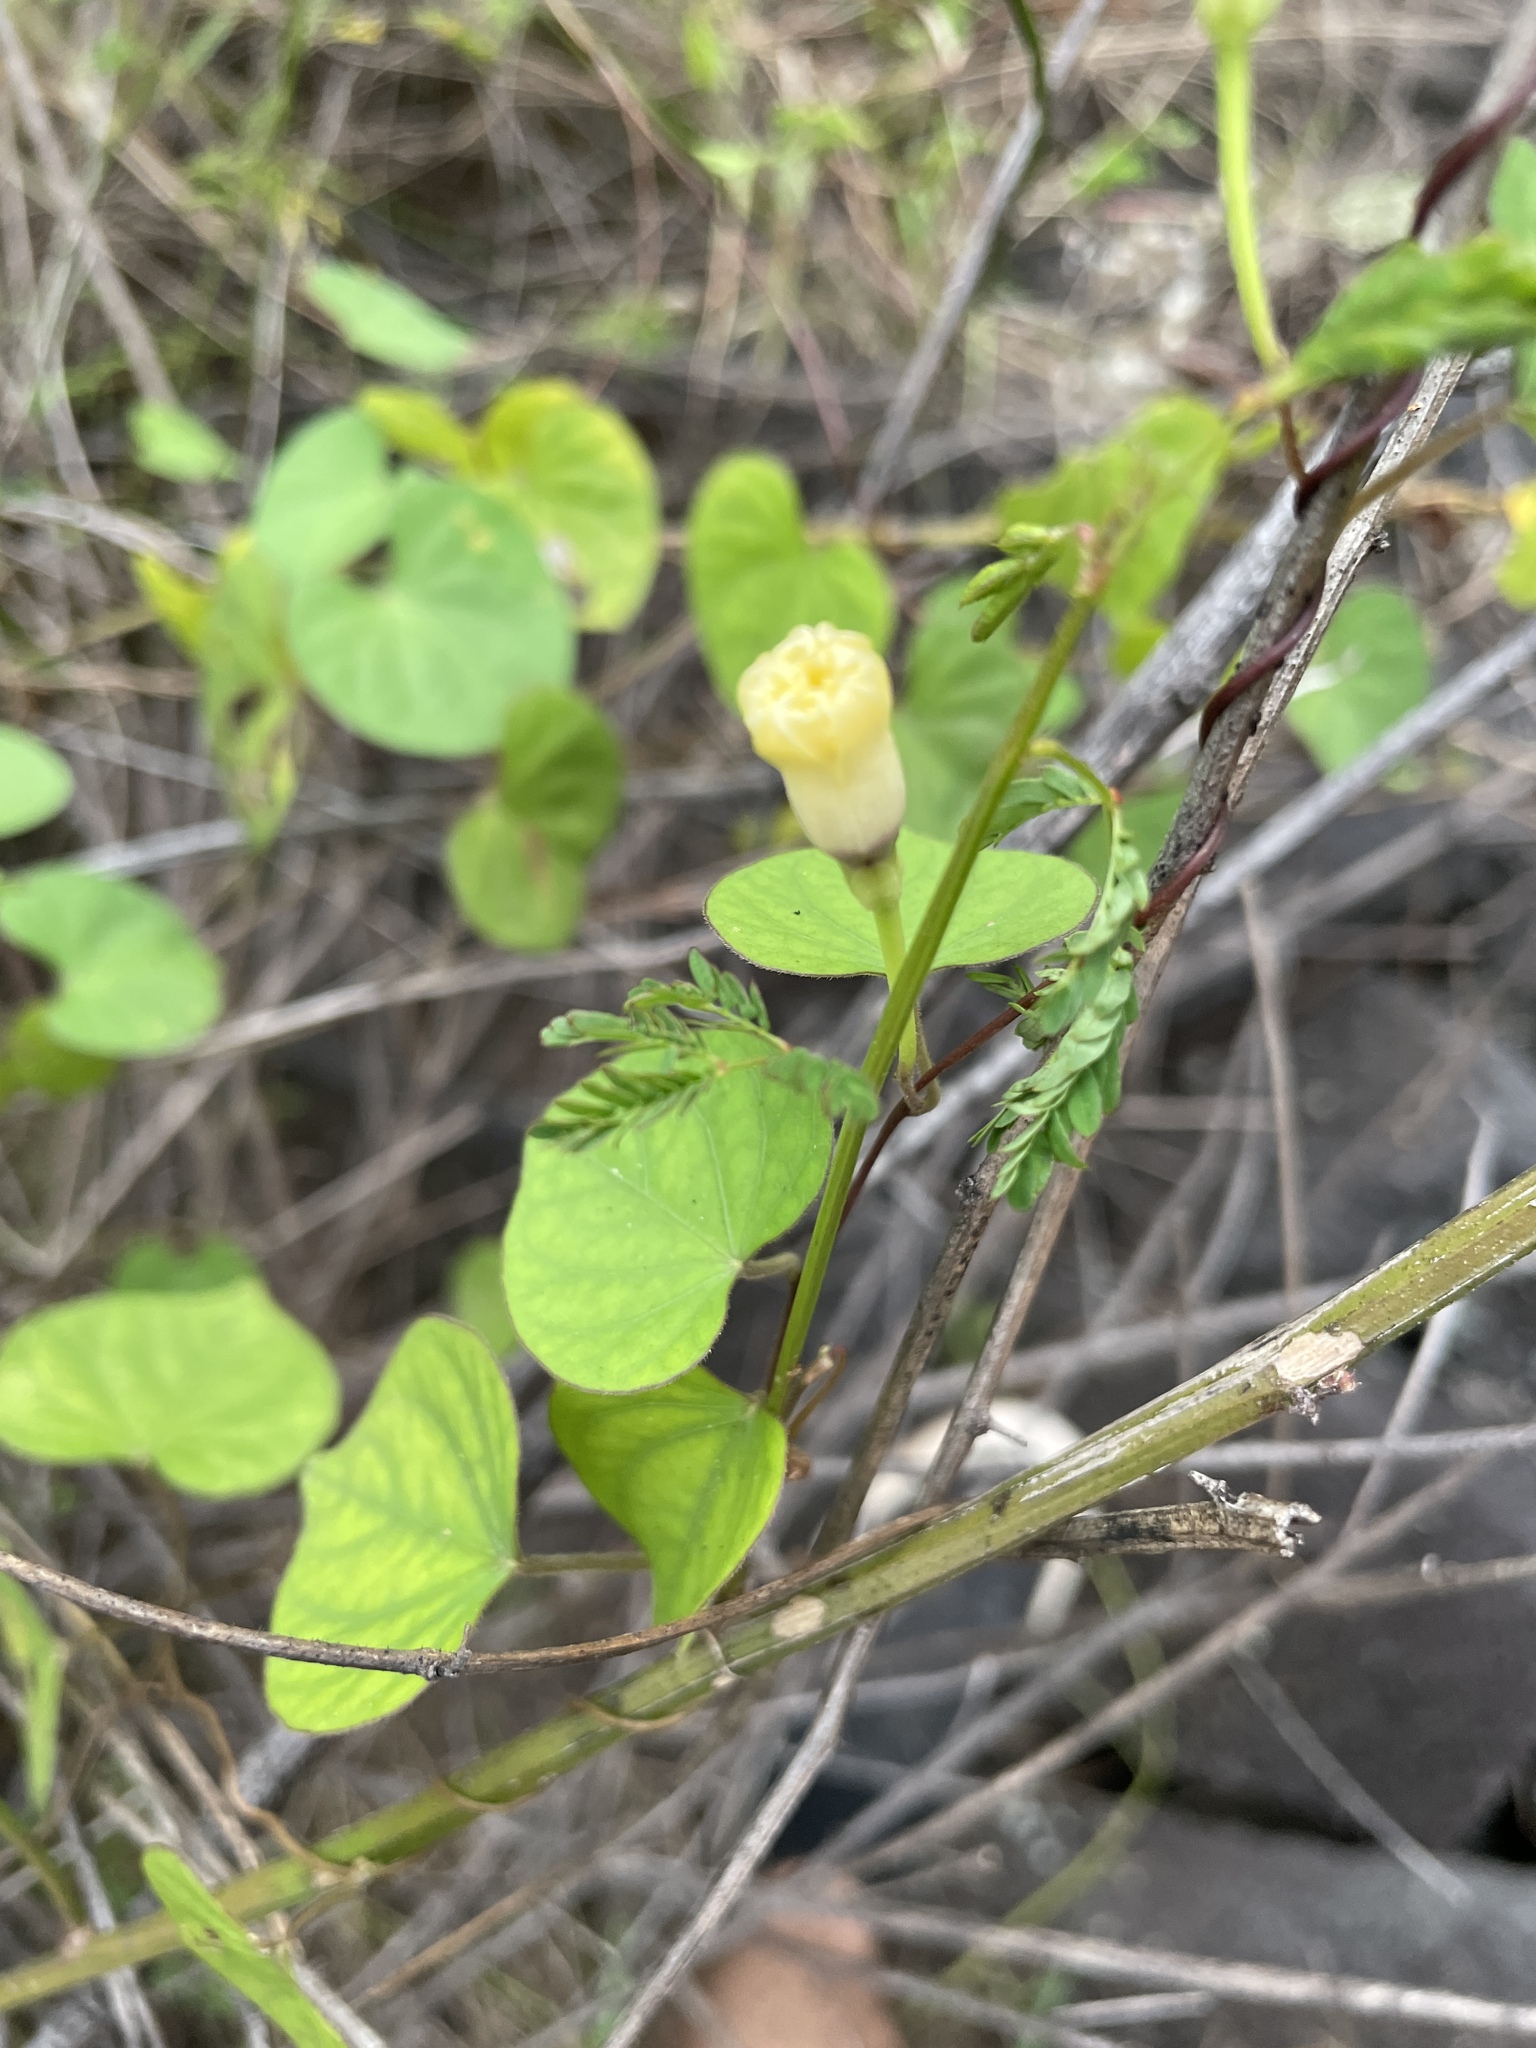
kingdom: Plantae
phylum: Tracheophyta
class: Magnoliopsida
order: Solanales
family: Convolvulaceae
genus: Ipomoea
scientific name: Ipomoea obscura
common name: Obscure morning-glory
